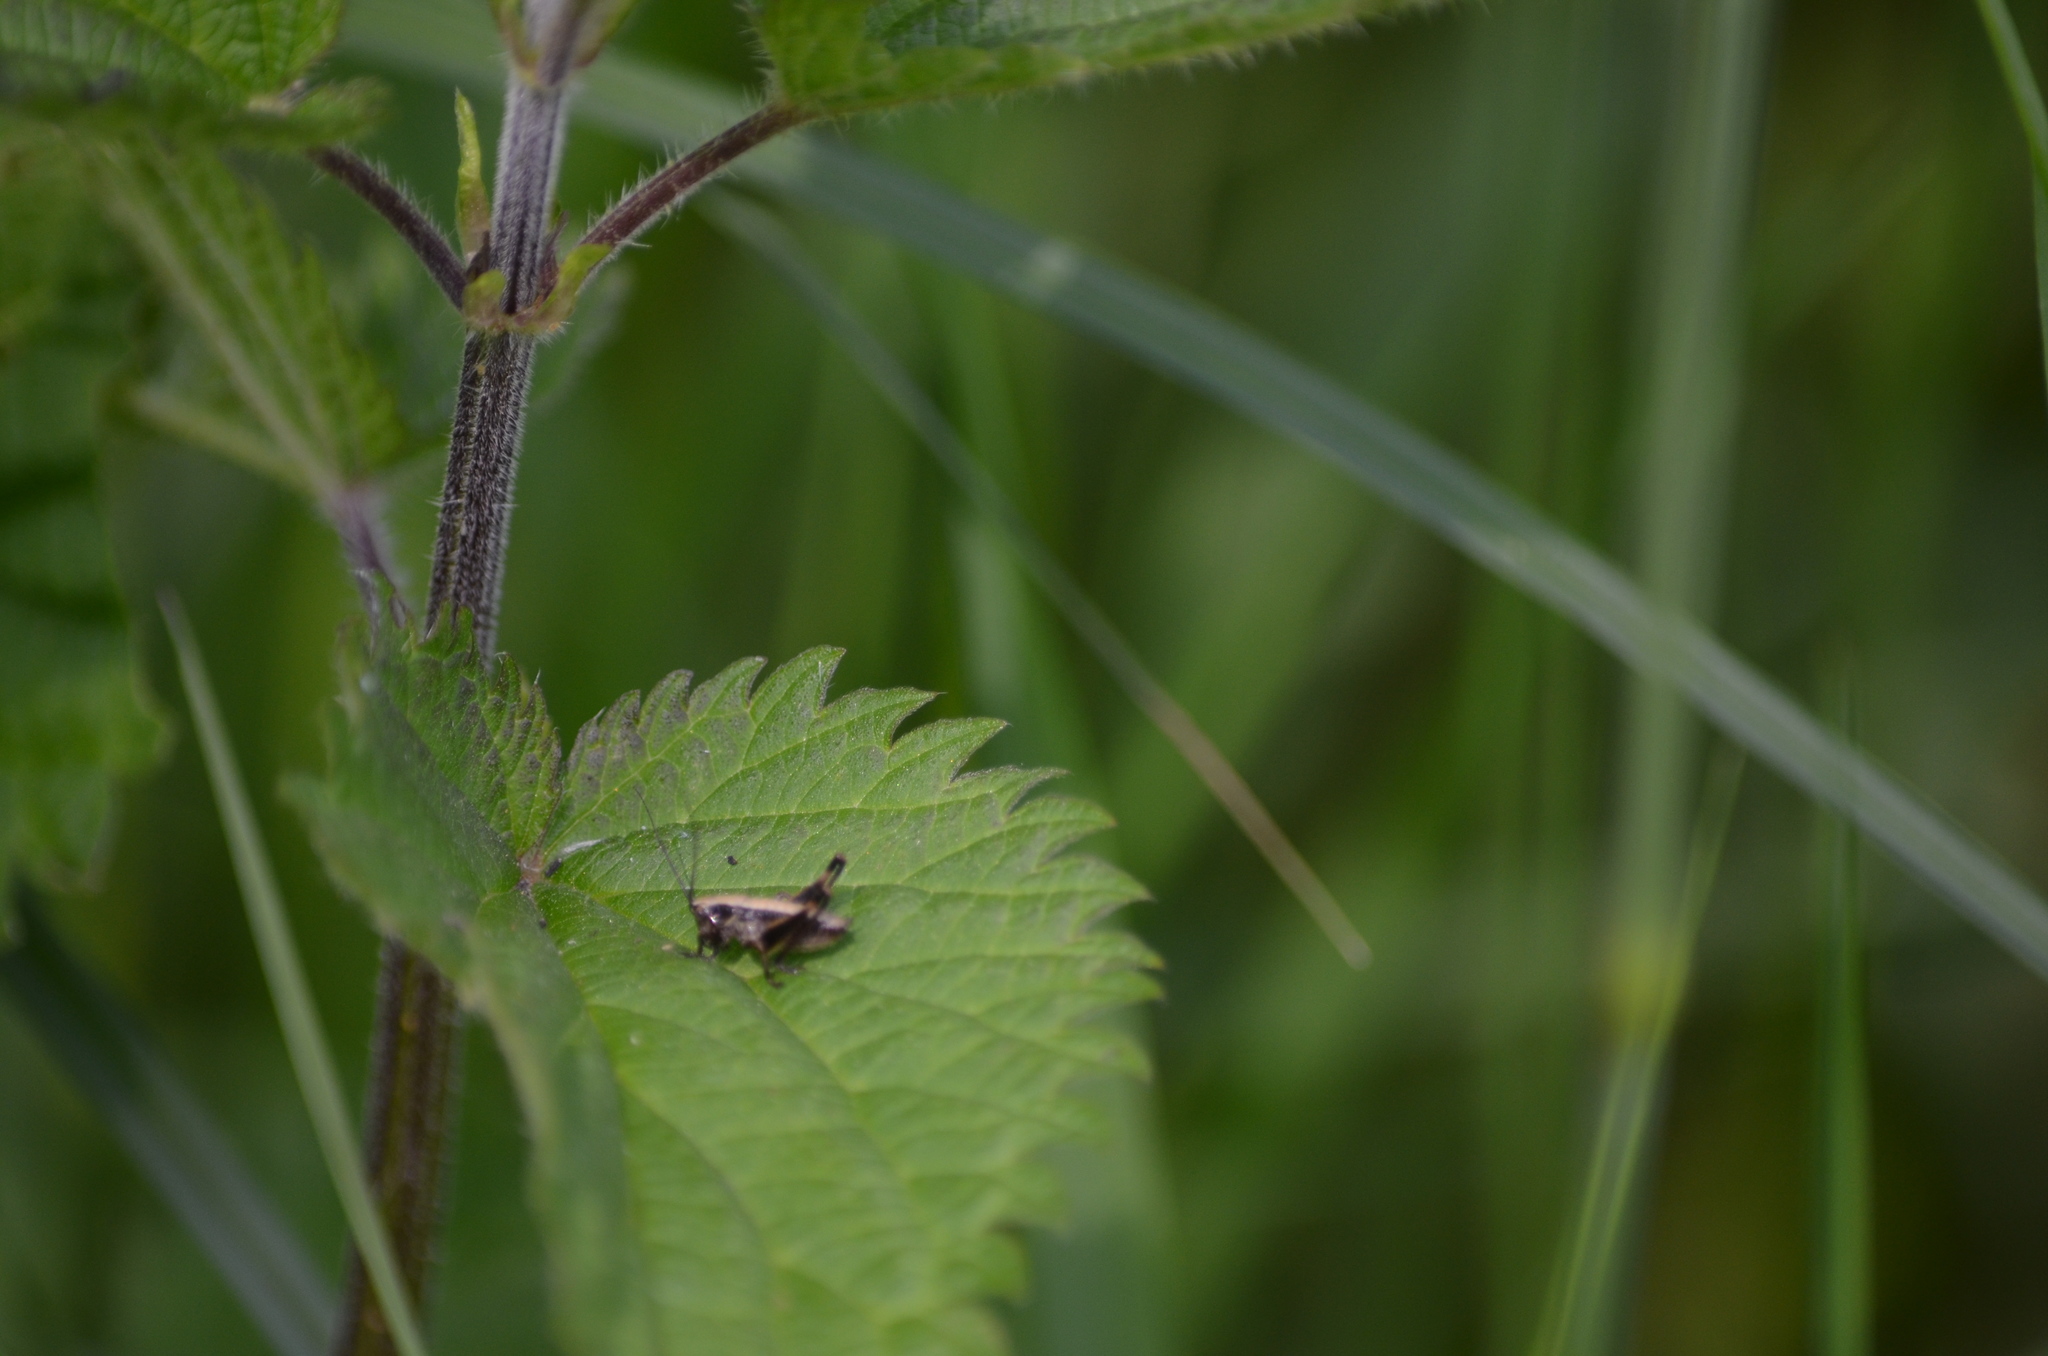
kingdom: Animalia
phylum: Arthropoda
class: Insecta
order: Orthoptera
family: Tettigoniidae
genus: Pholidoptera
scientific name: Pholidoptera griseoaptera
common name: Dark bush-cricket
